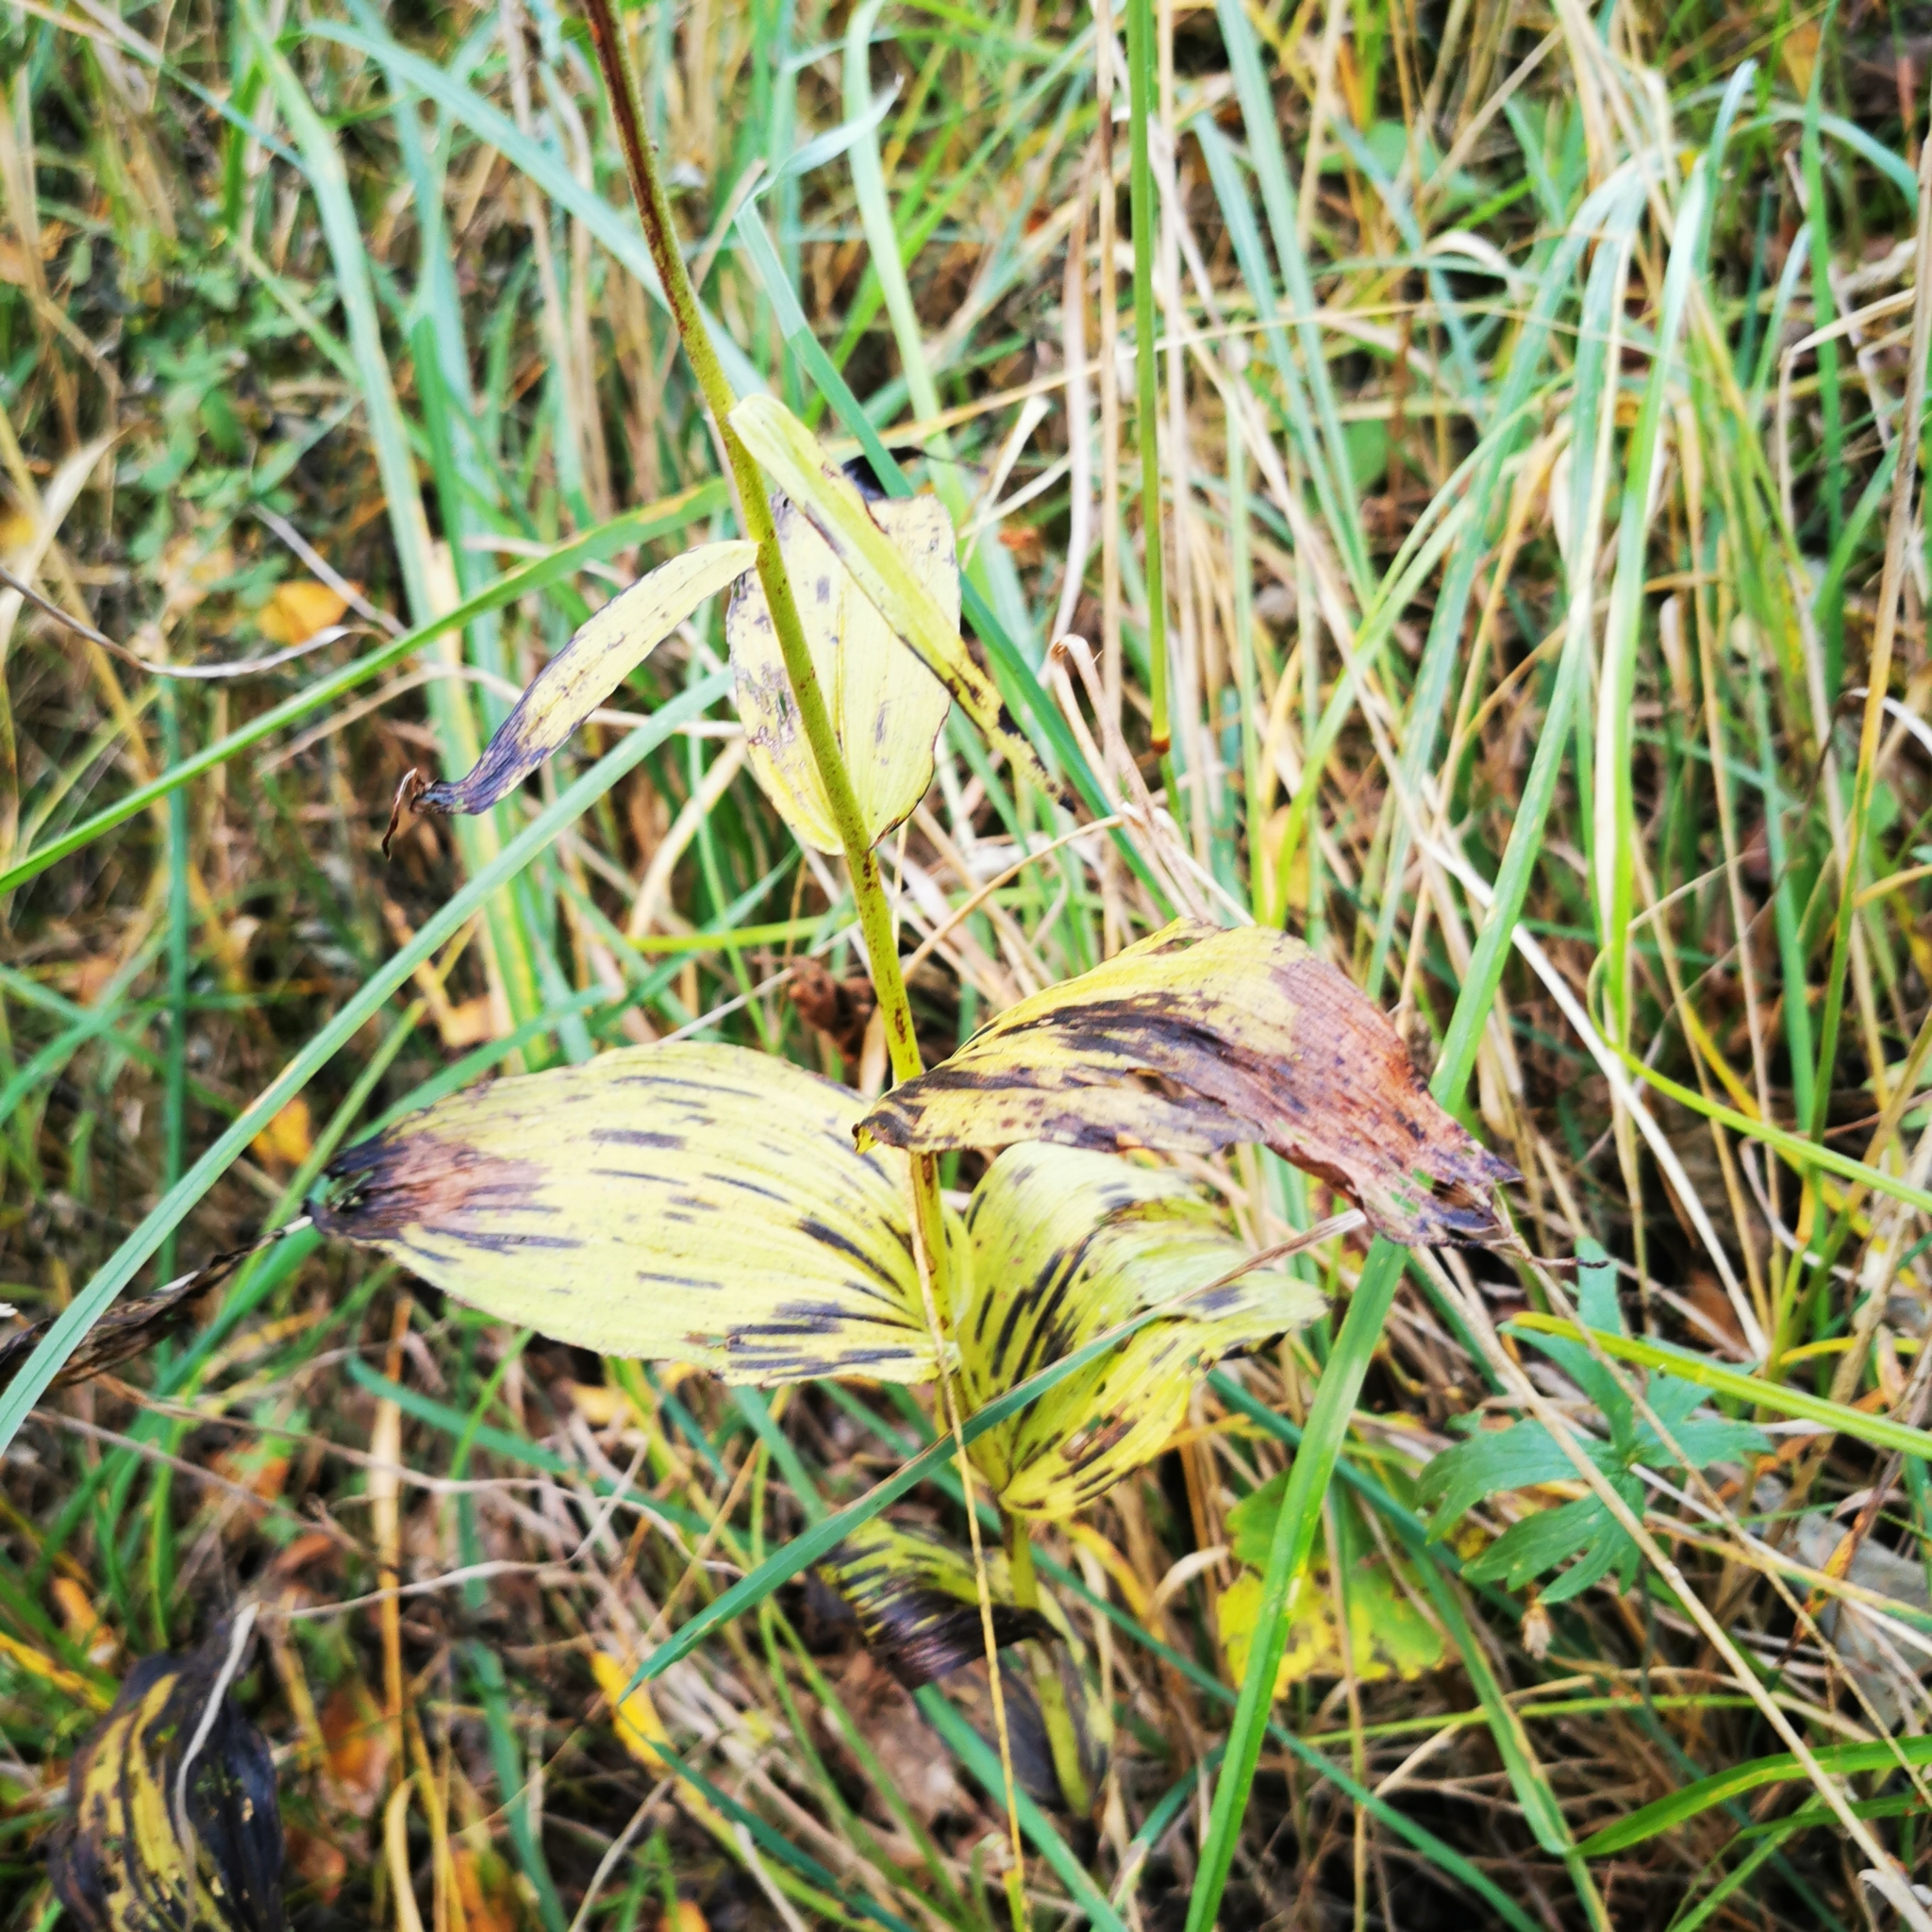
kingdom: Plantae
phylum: Tracheophyta
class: Liliopsida
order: Asparagales
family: Orchidaceae
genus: Epipactis
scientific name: Epipactis helleborine
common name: Broad-leaved helleborine
